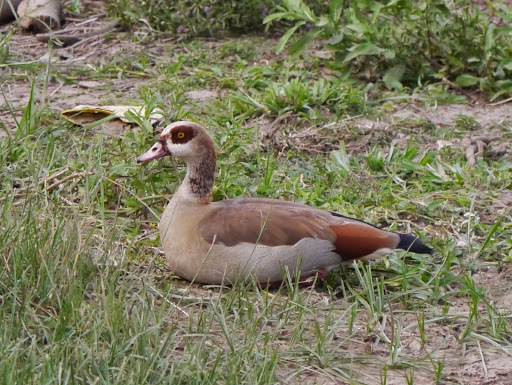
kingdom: Animalia
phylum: Chordata
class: Aves
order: Anseriformes
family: Anatidae
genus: Alopochen
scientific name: Alopochen aegyptiaca
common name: Egyptian goose
